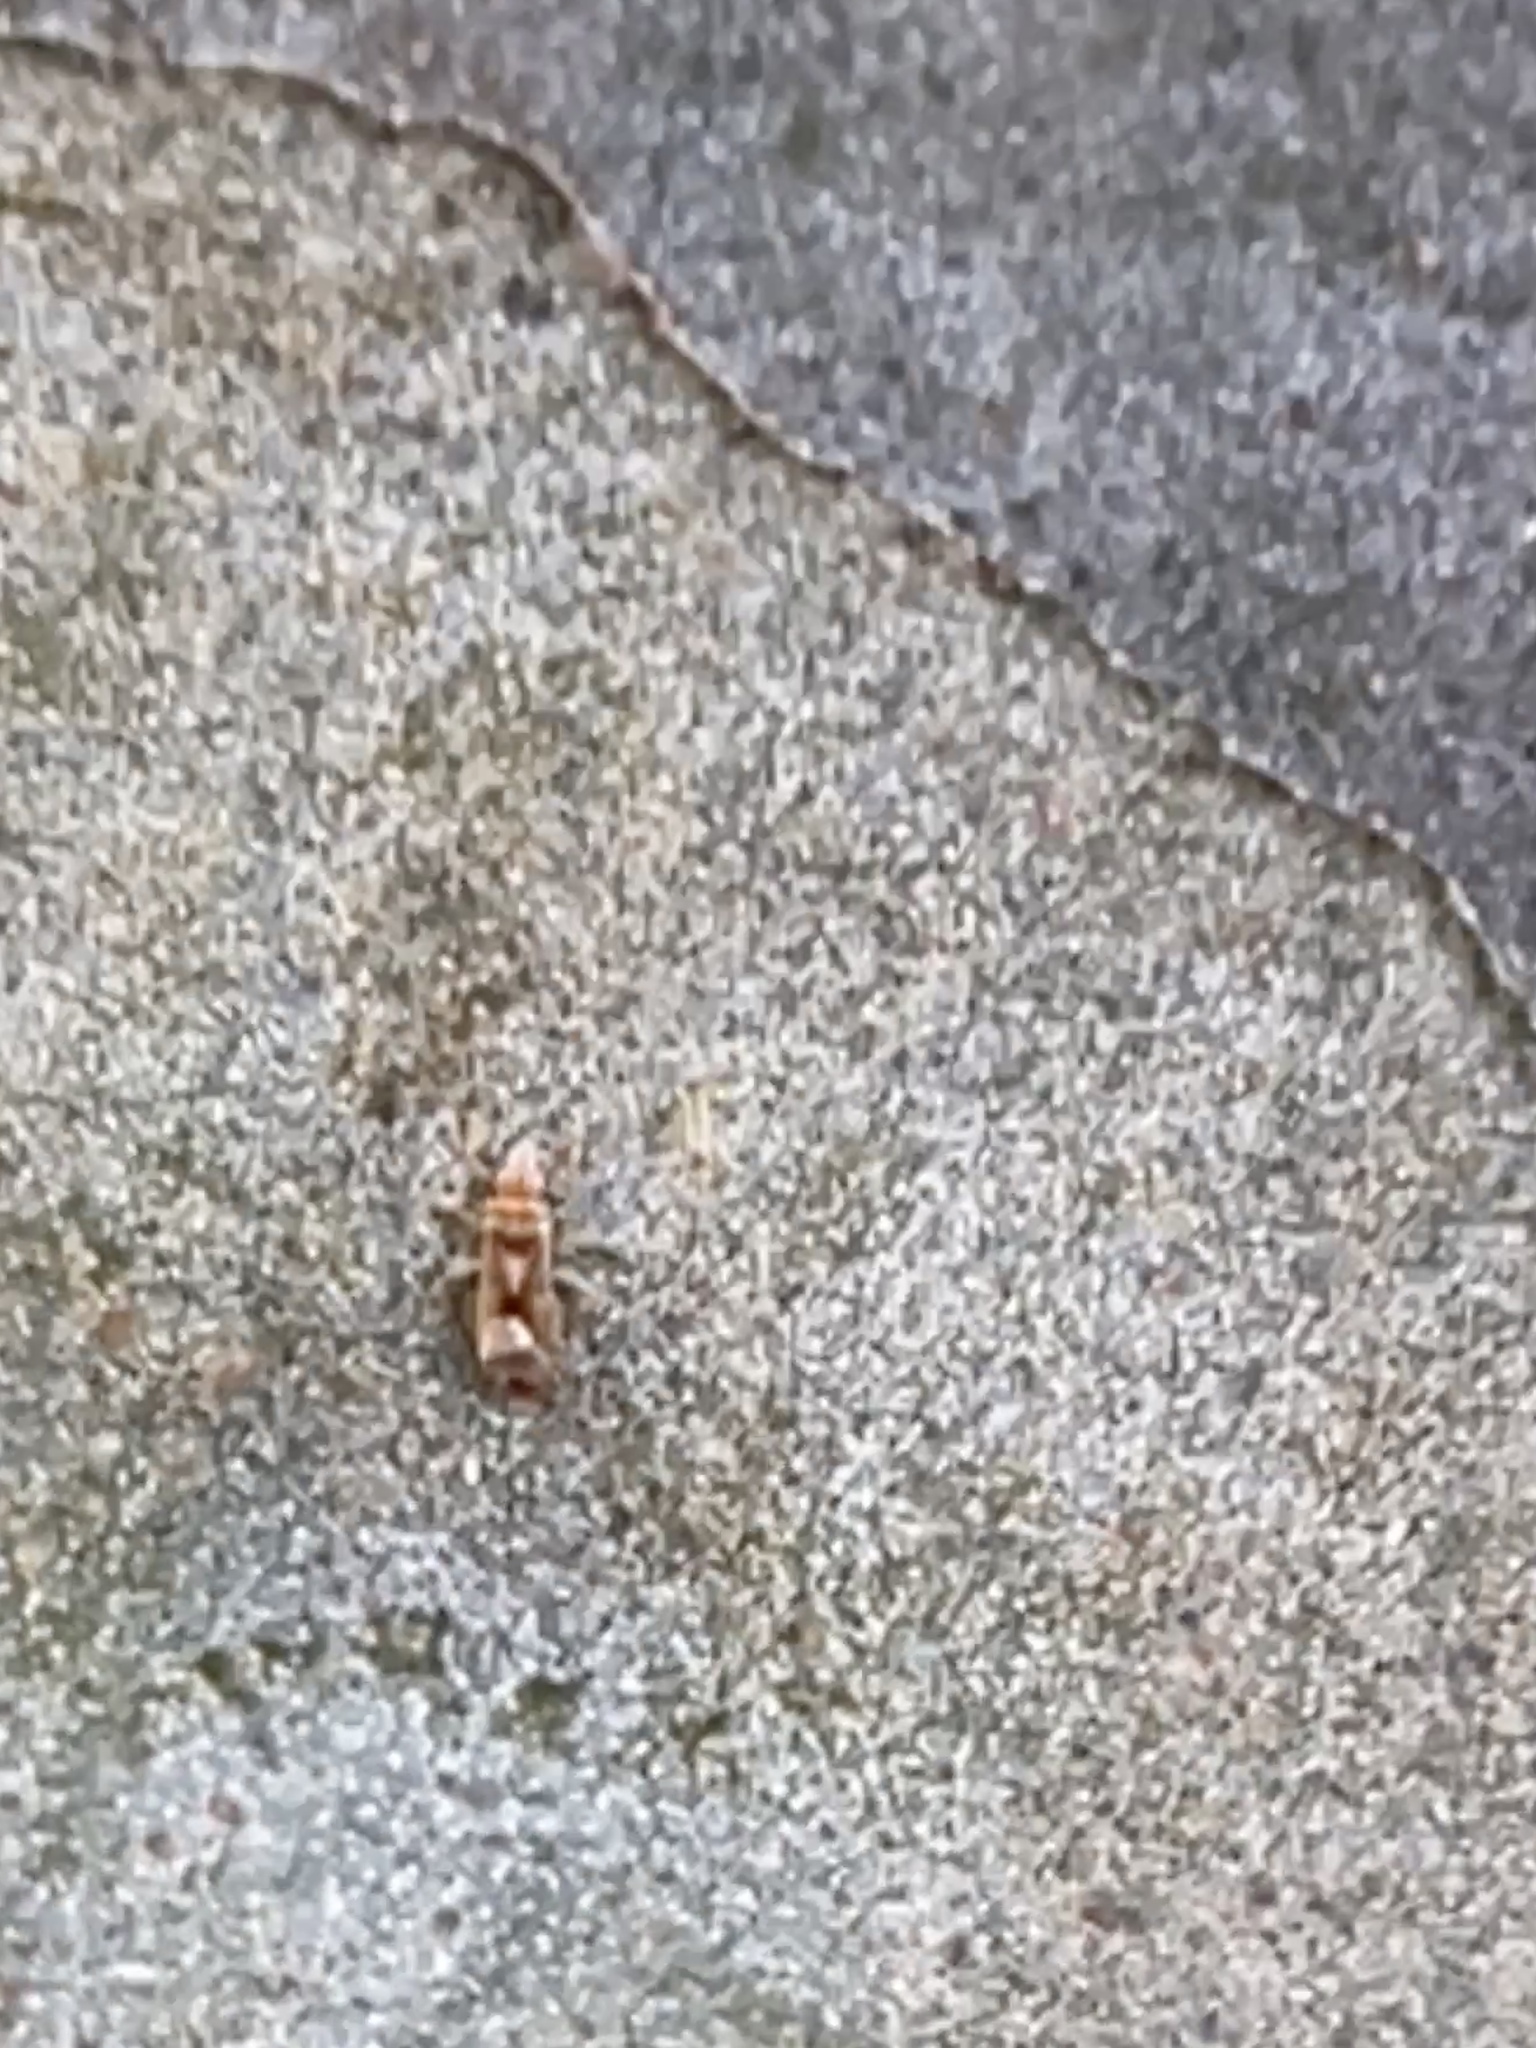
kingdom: Animalia
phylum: Arthropoda
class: Insecta
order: Hemiptera
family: Thaumastocoridae
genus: Thaumastocoris
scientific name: Thaumastocoris peregrinus
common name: Bronze bug
